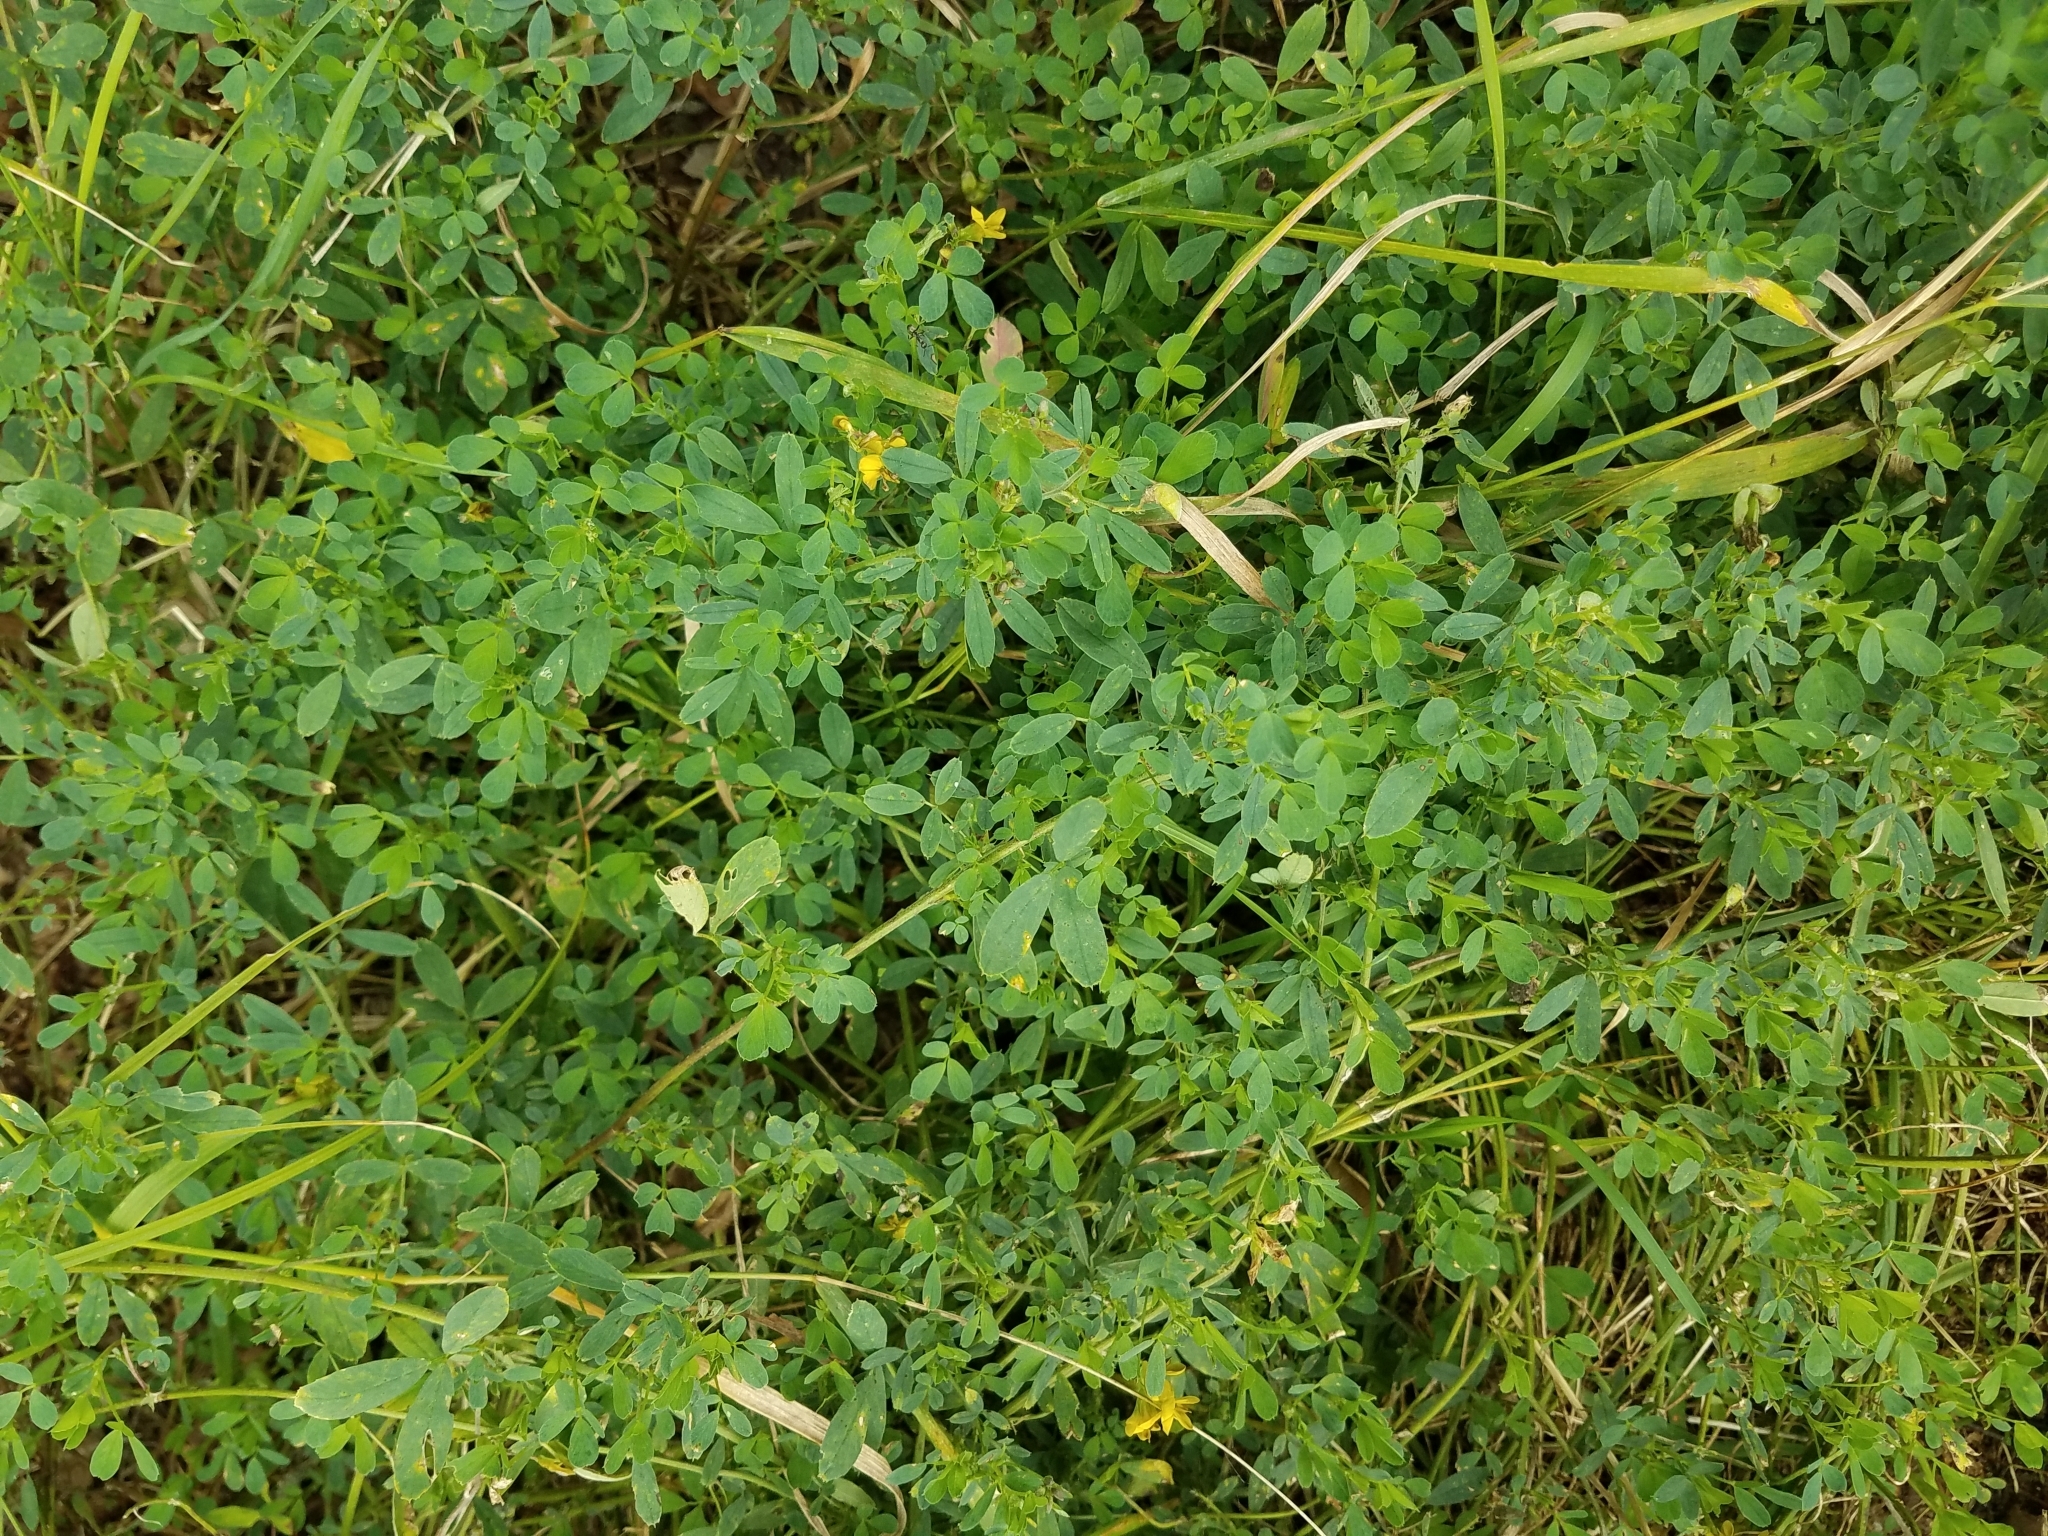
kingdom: Plantae
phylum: Tracheophyta
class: Magnoliopsida
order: Fabales
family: Fabaceae
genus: Medicago
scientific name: Medicago falcata
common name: Sickle medick
